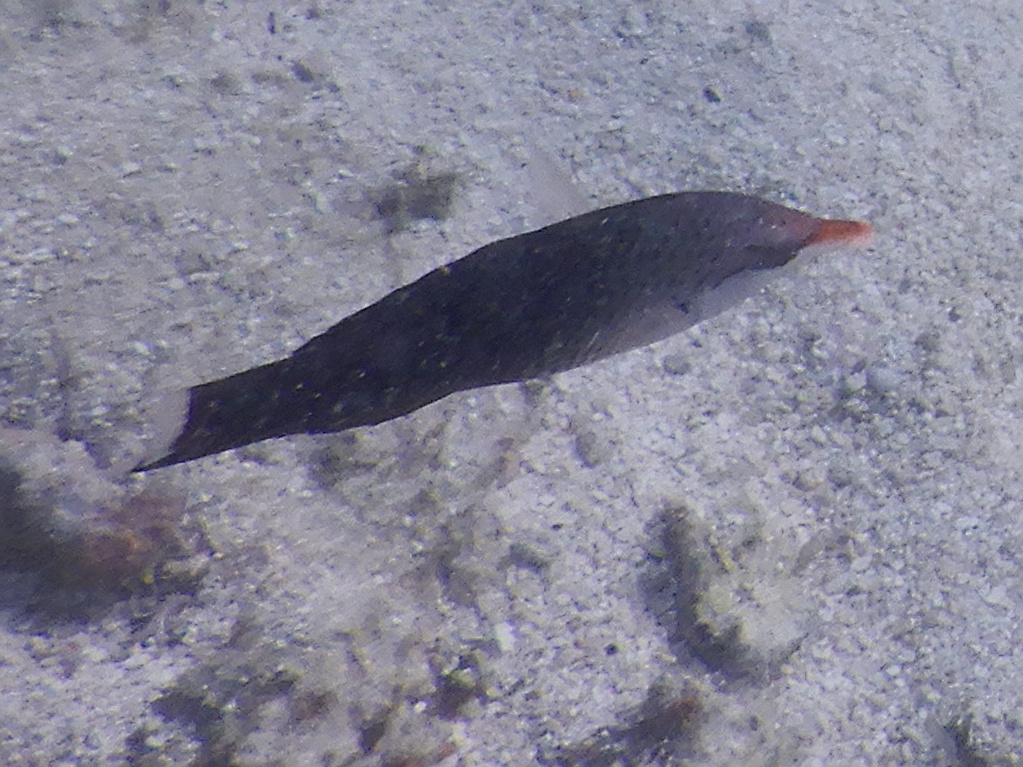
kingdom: Animalia
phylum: Chordata
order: Perciformes
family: Labridae
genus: Gomphosus
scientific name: Gomphosus varius
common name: Bird wrasse
